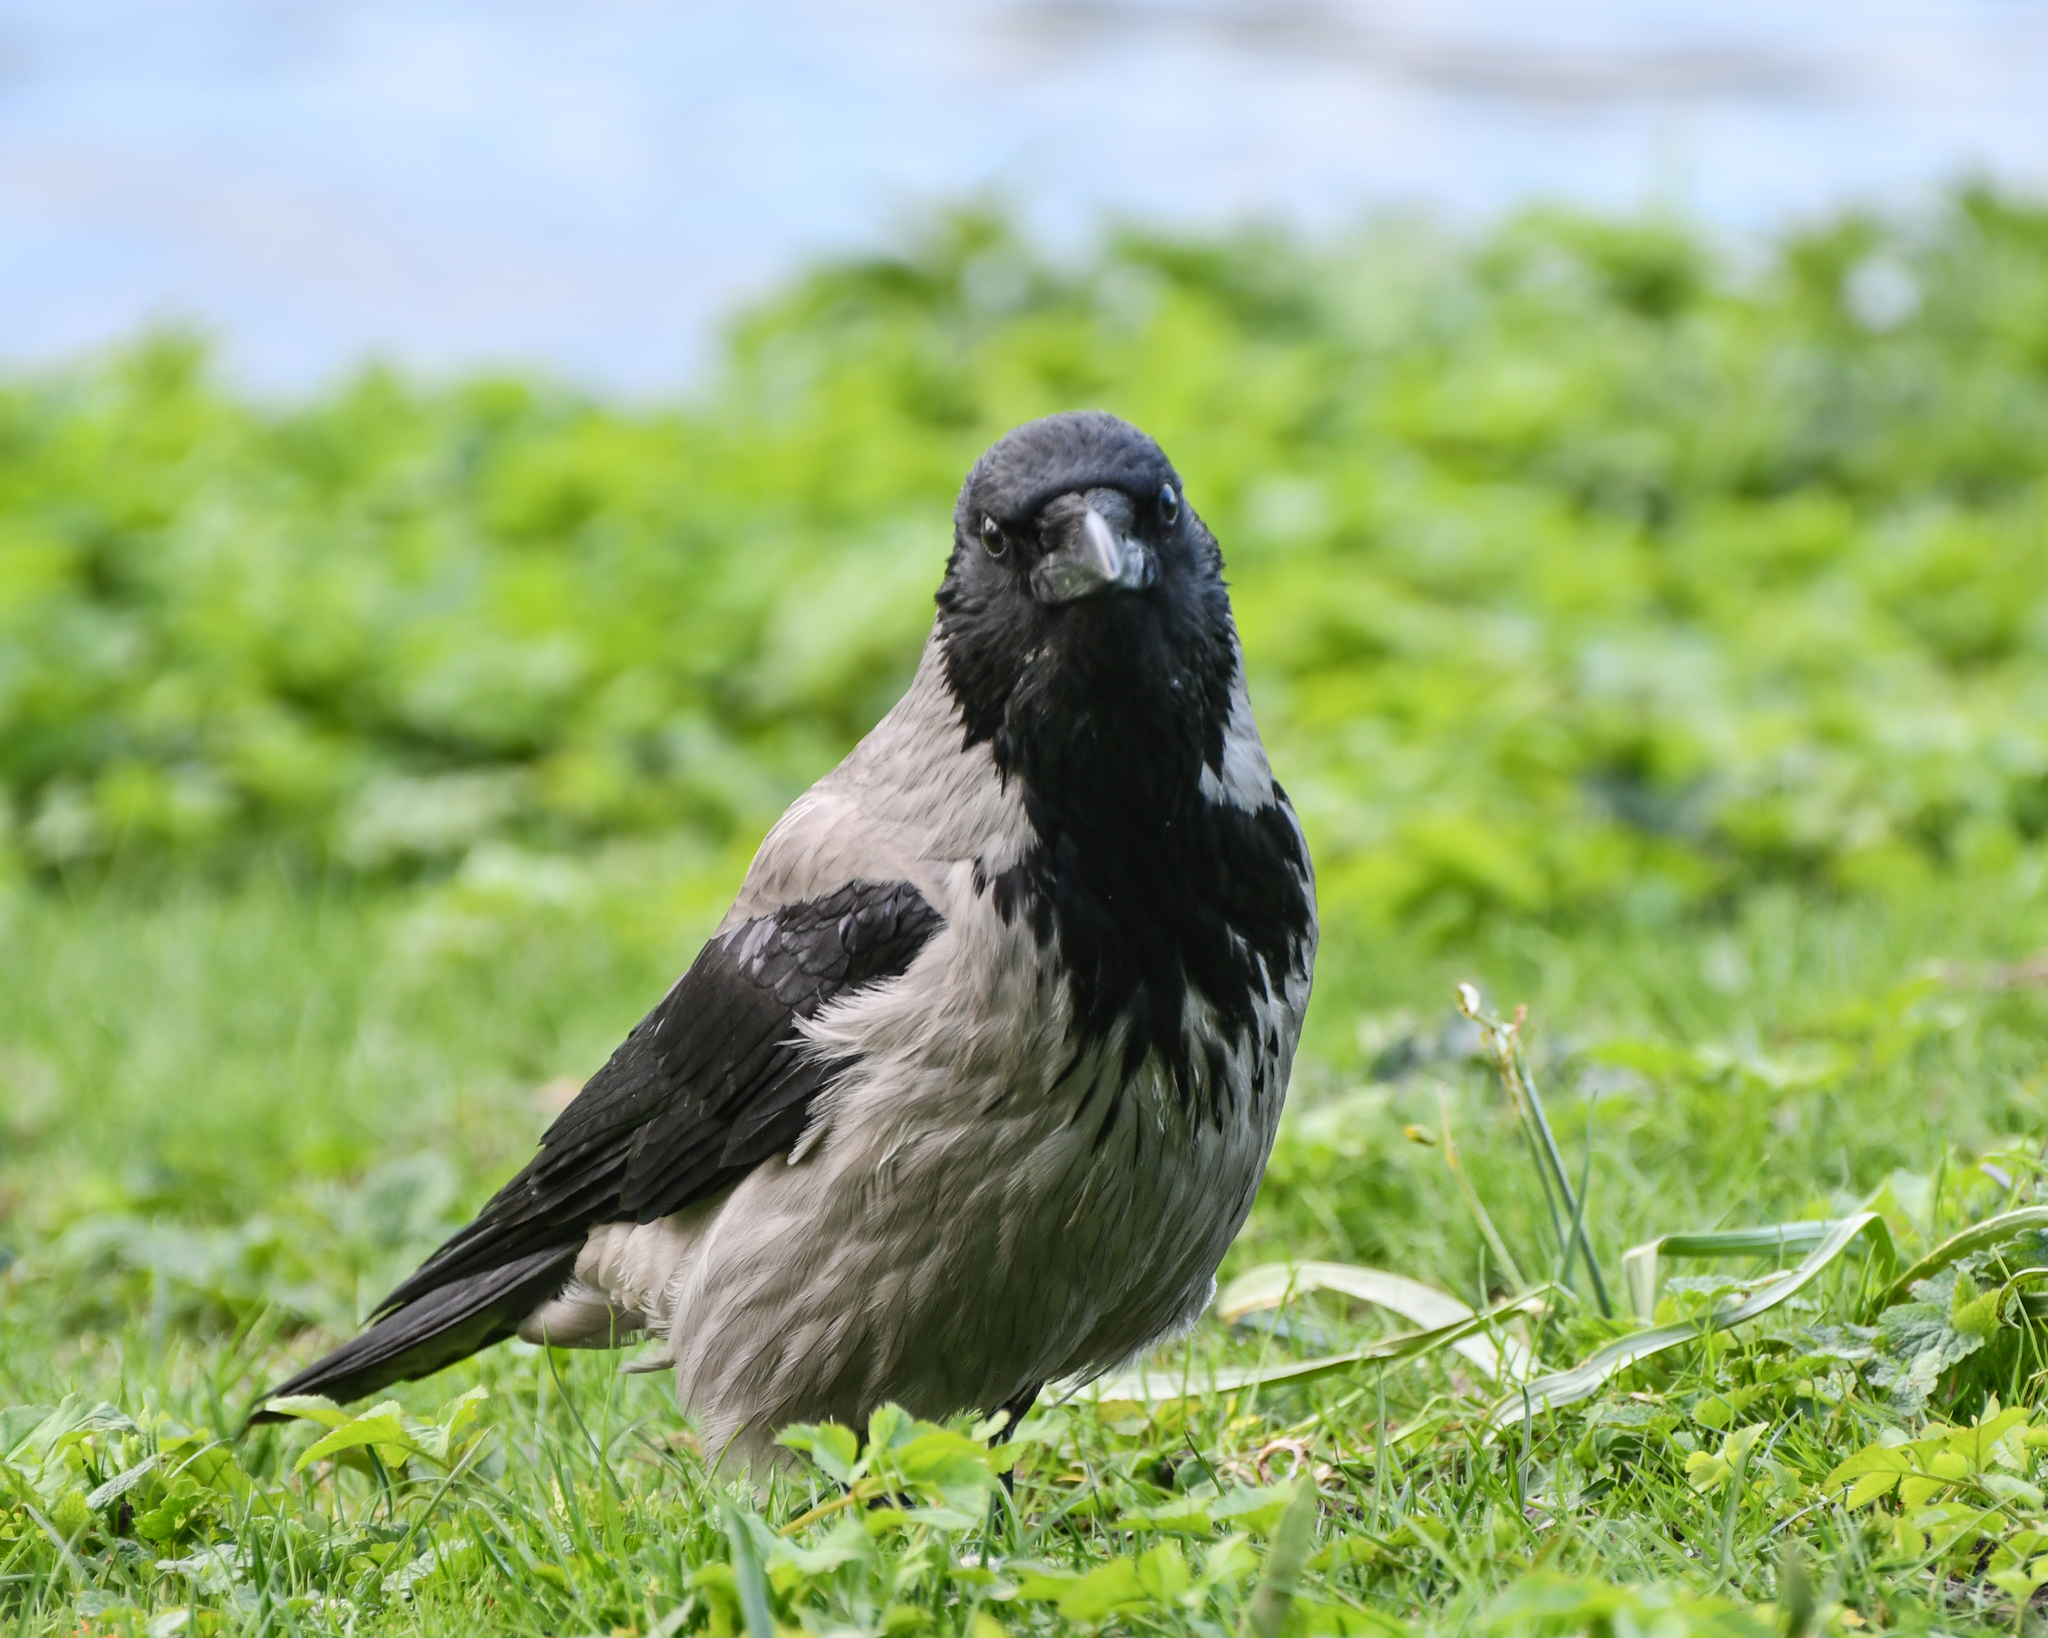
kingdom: Animalia
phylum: Chordata
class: Aves
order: Passeriformes
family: Corvidae
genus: Corvus
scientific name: Corvus cornix
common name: Hooded crow
